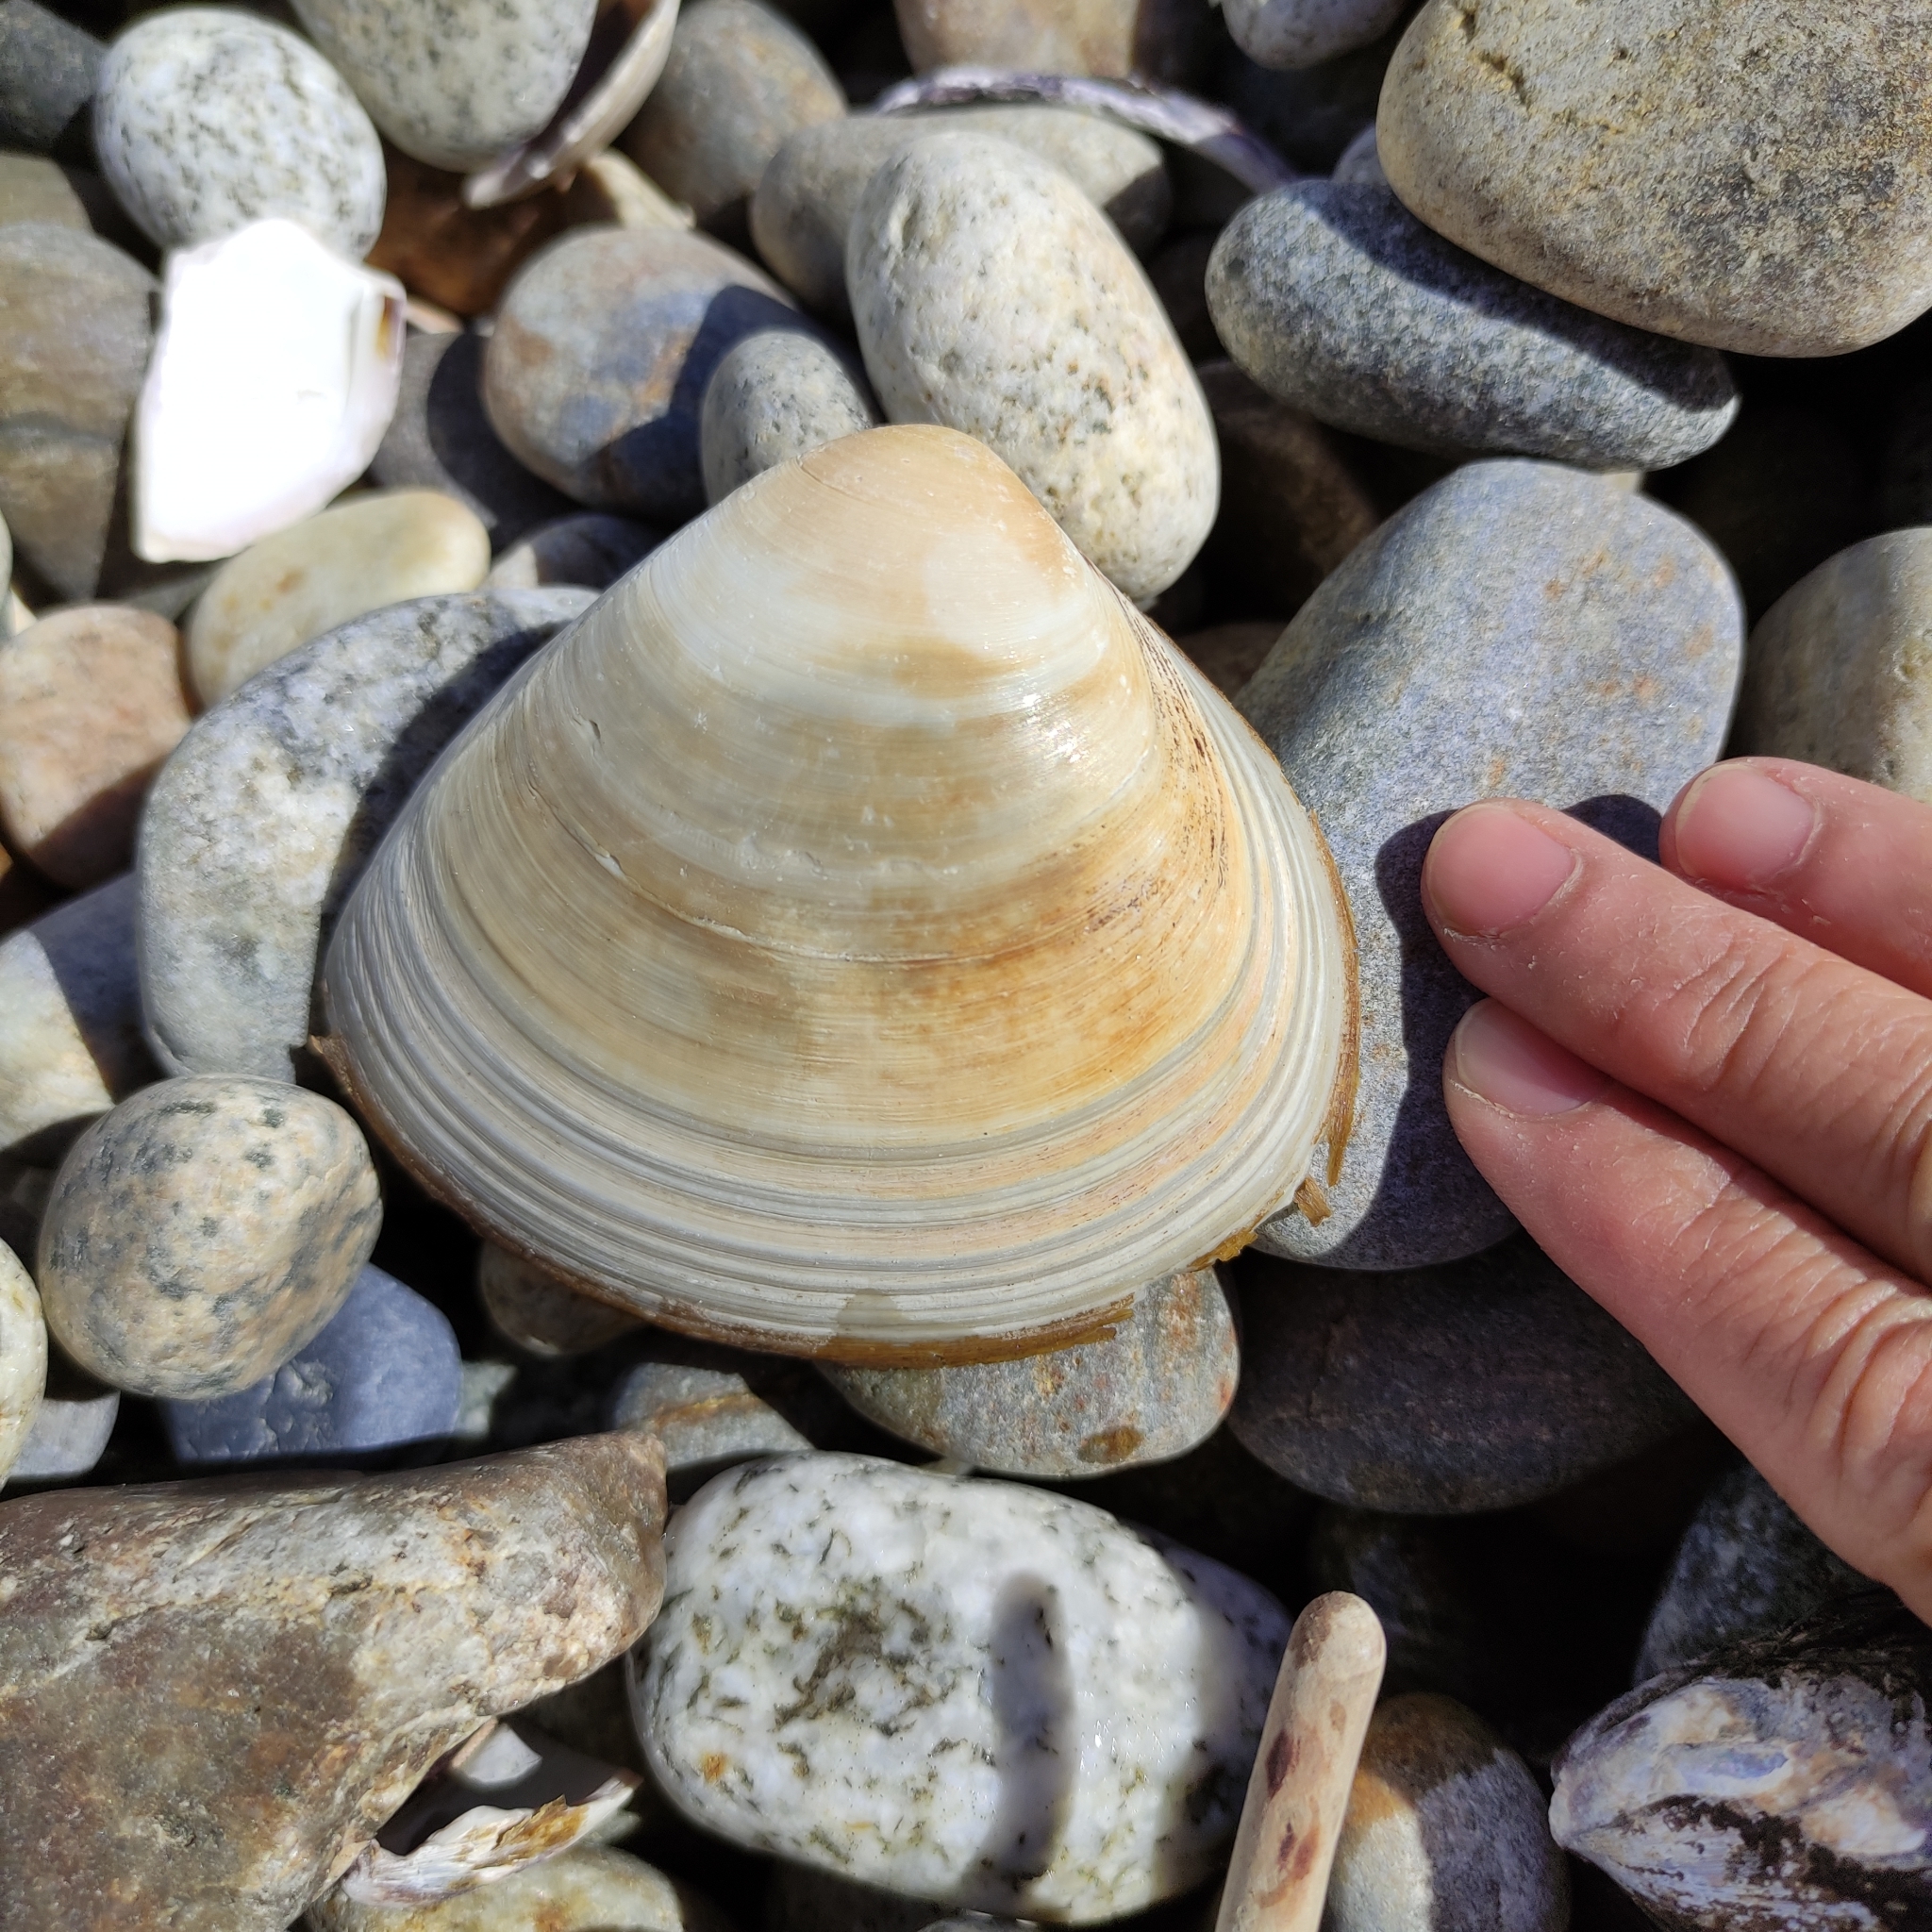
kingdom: Animalia
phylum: Mollusca
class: Bivalvia
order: Venerida
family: Mactridae
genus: Spisula
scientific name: Spisula murchisoni
